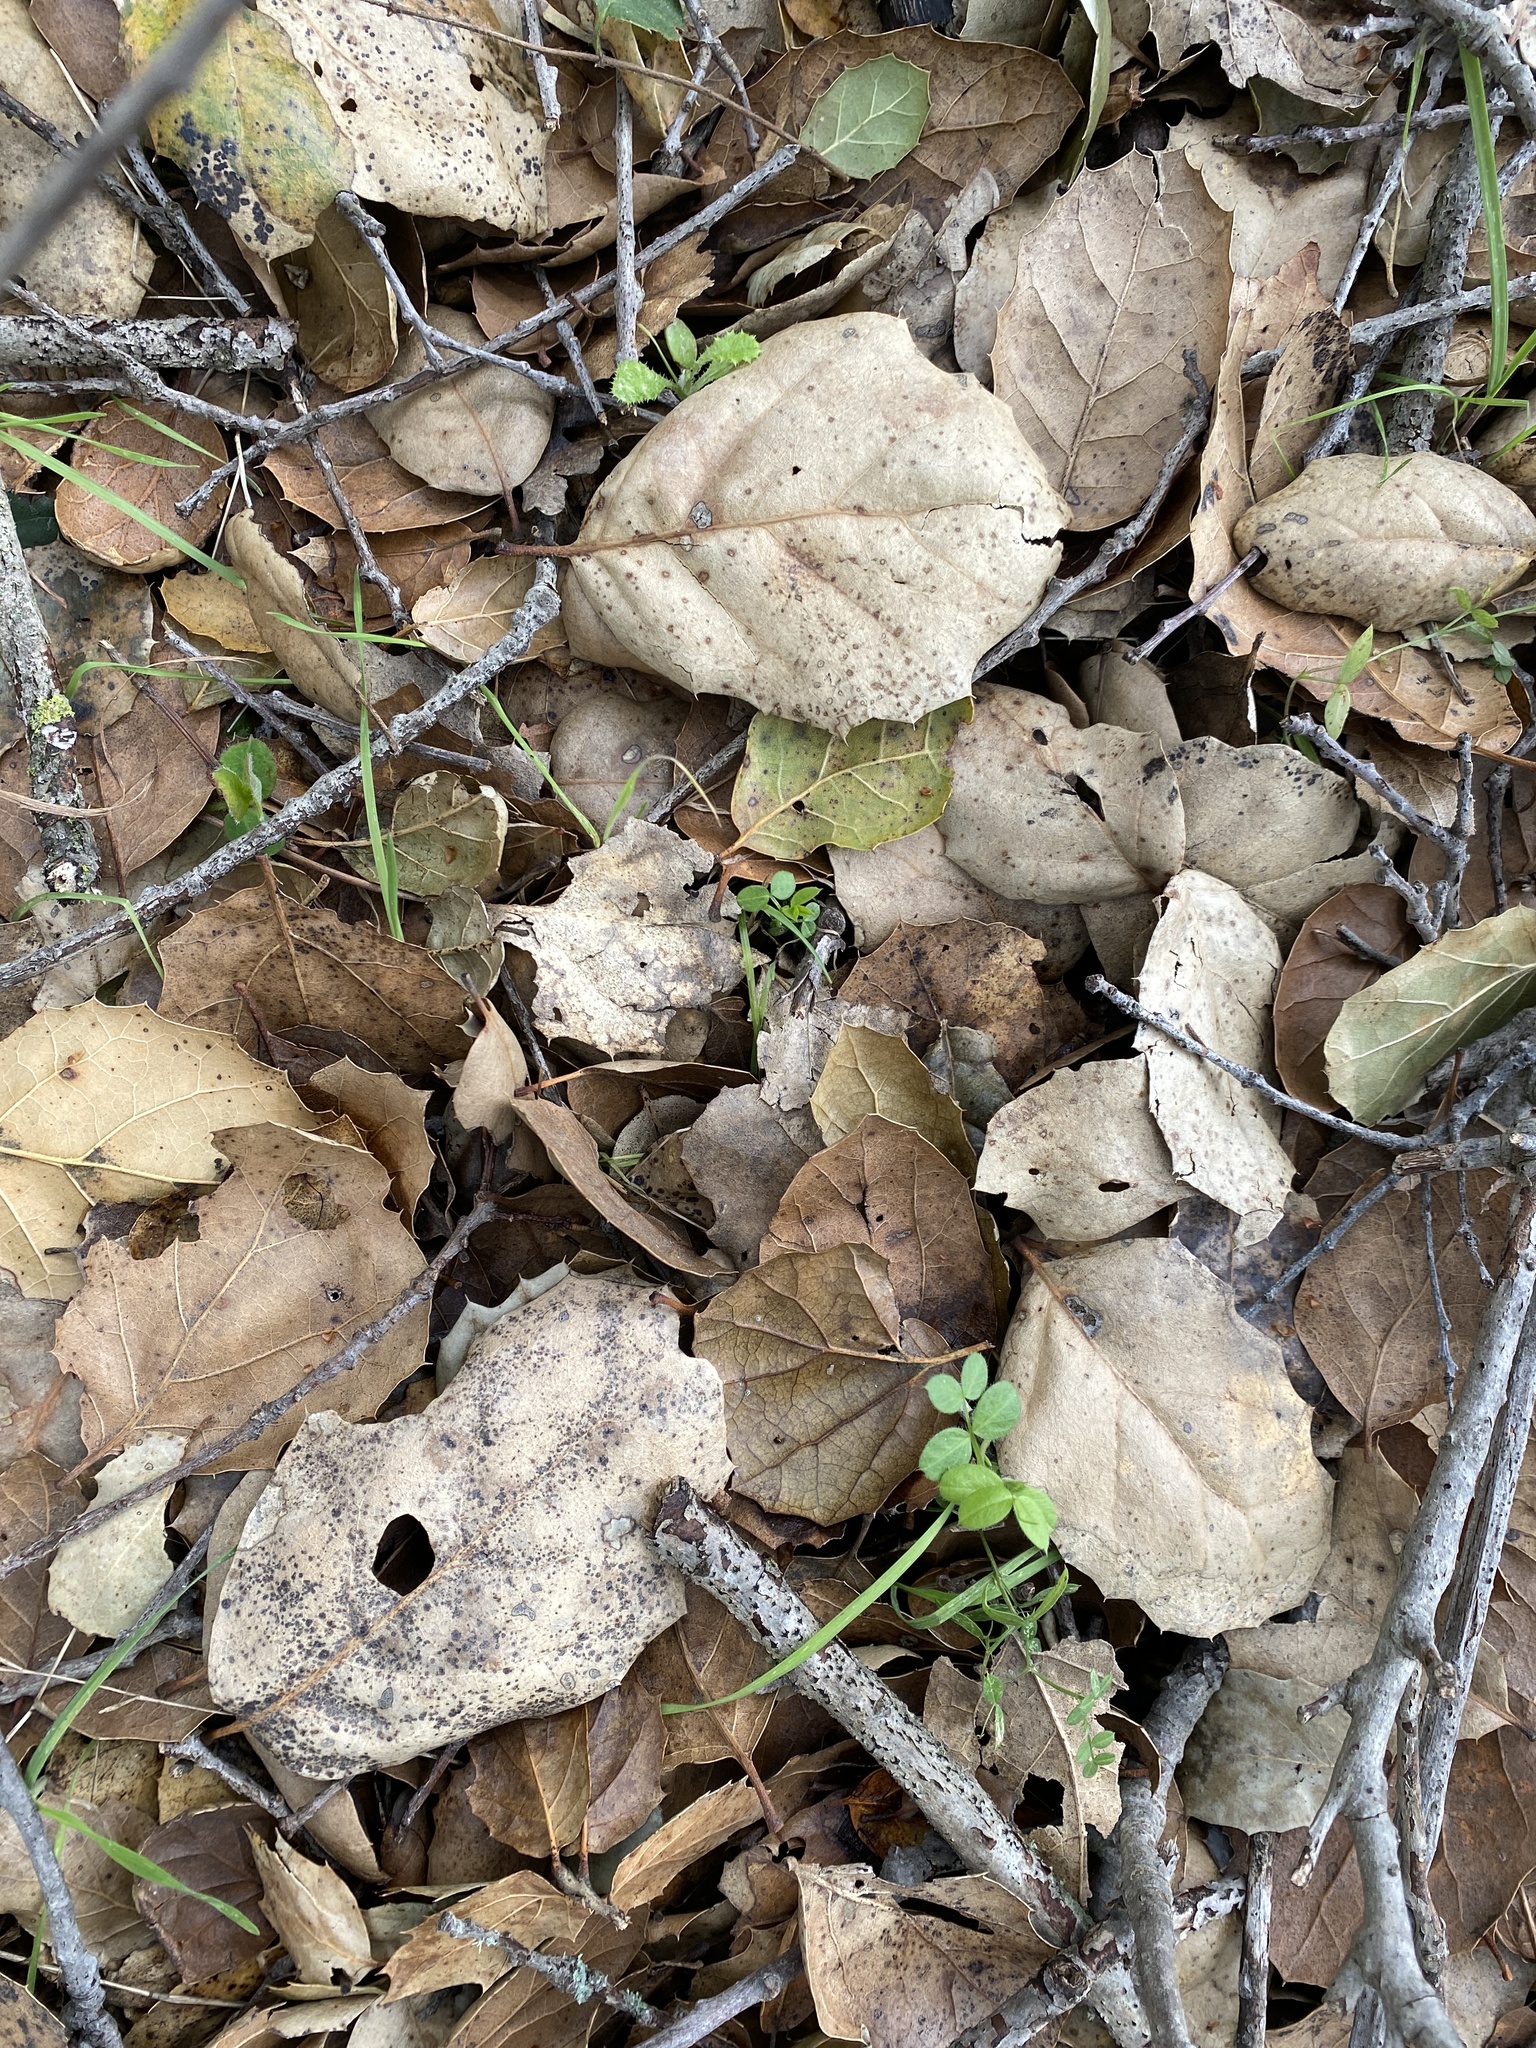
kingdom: Plantae
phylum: Tracheophyta
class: Magnoliopsida
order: Fagales
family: Fagaceae
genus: Quercus
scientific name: Quercus agrifolia
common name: California live oak
